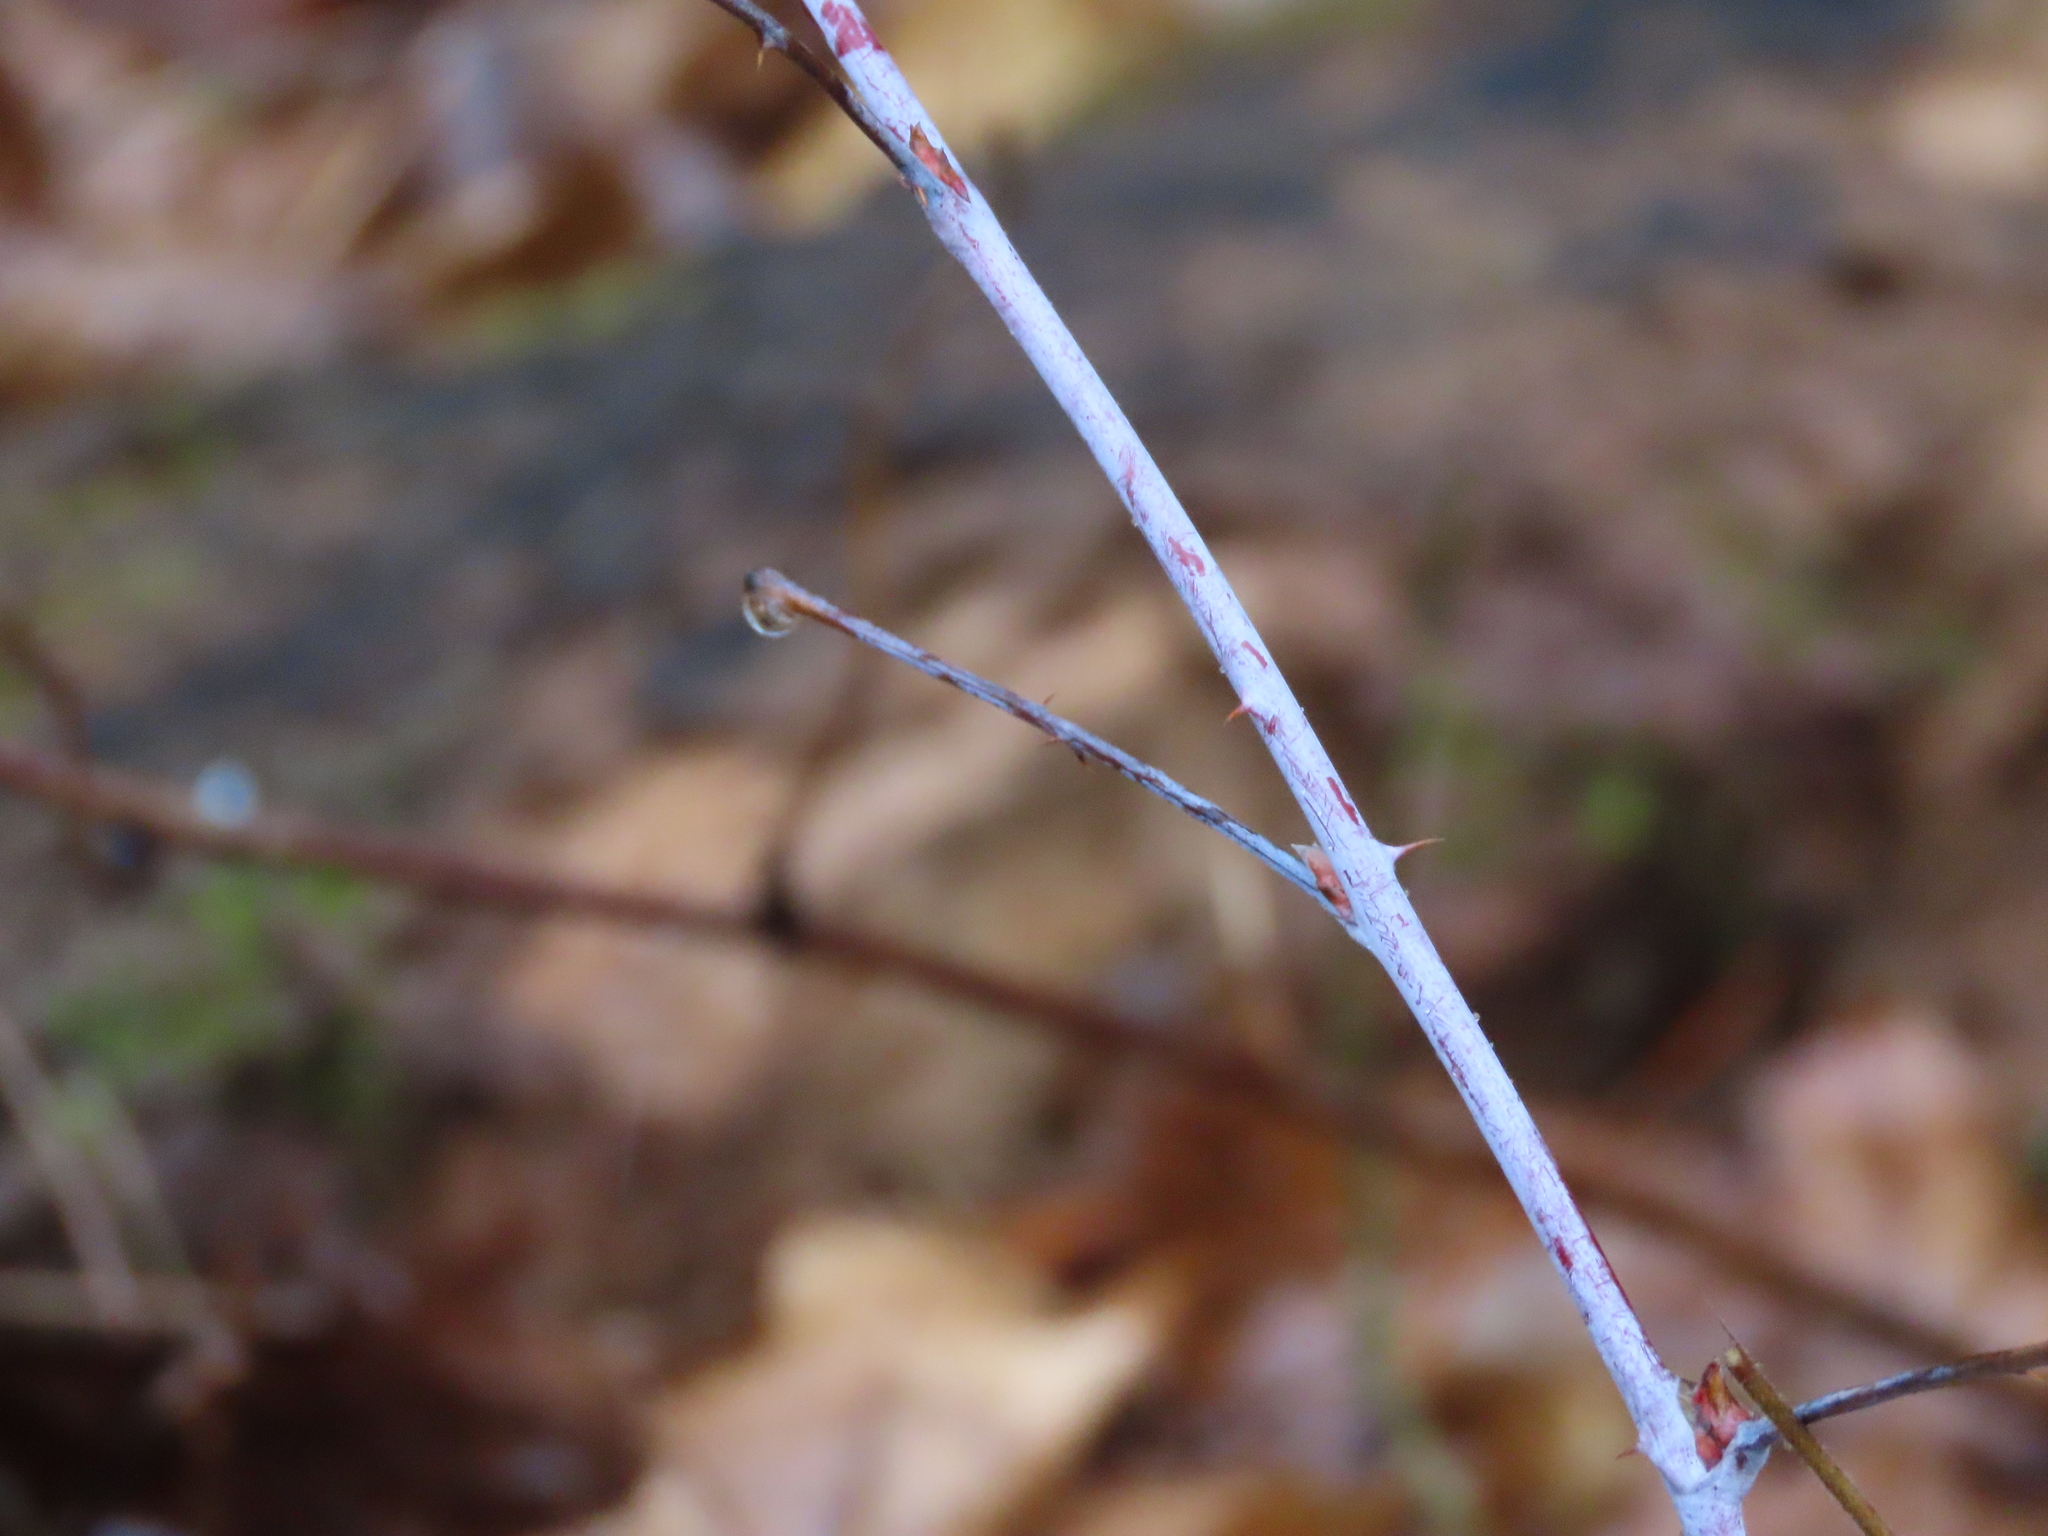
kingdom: Plantae
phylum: Tracheophyta
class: Magnoliopsida
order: Rosales
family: Rosaceae
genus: Rubus
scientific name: Rubus occidentalis
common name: Black raspberry
